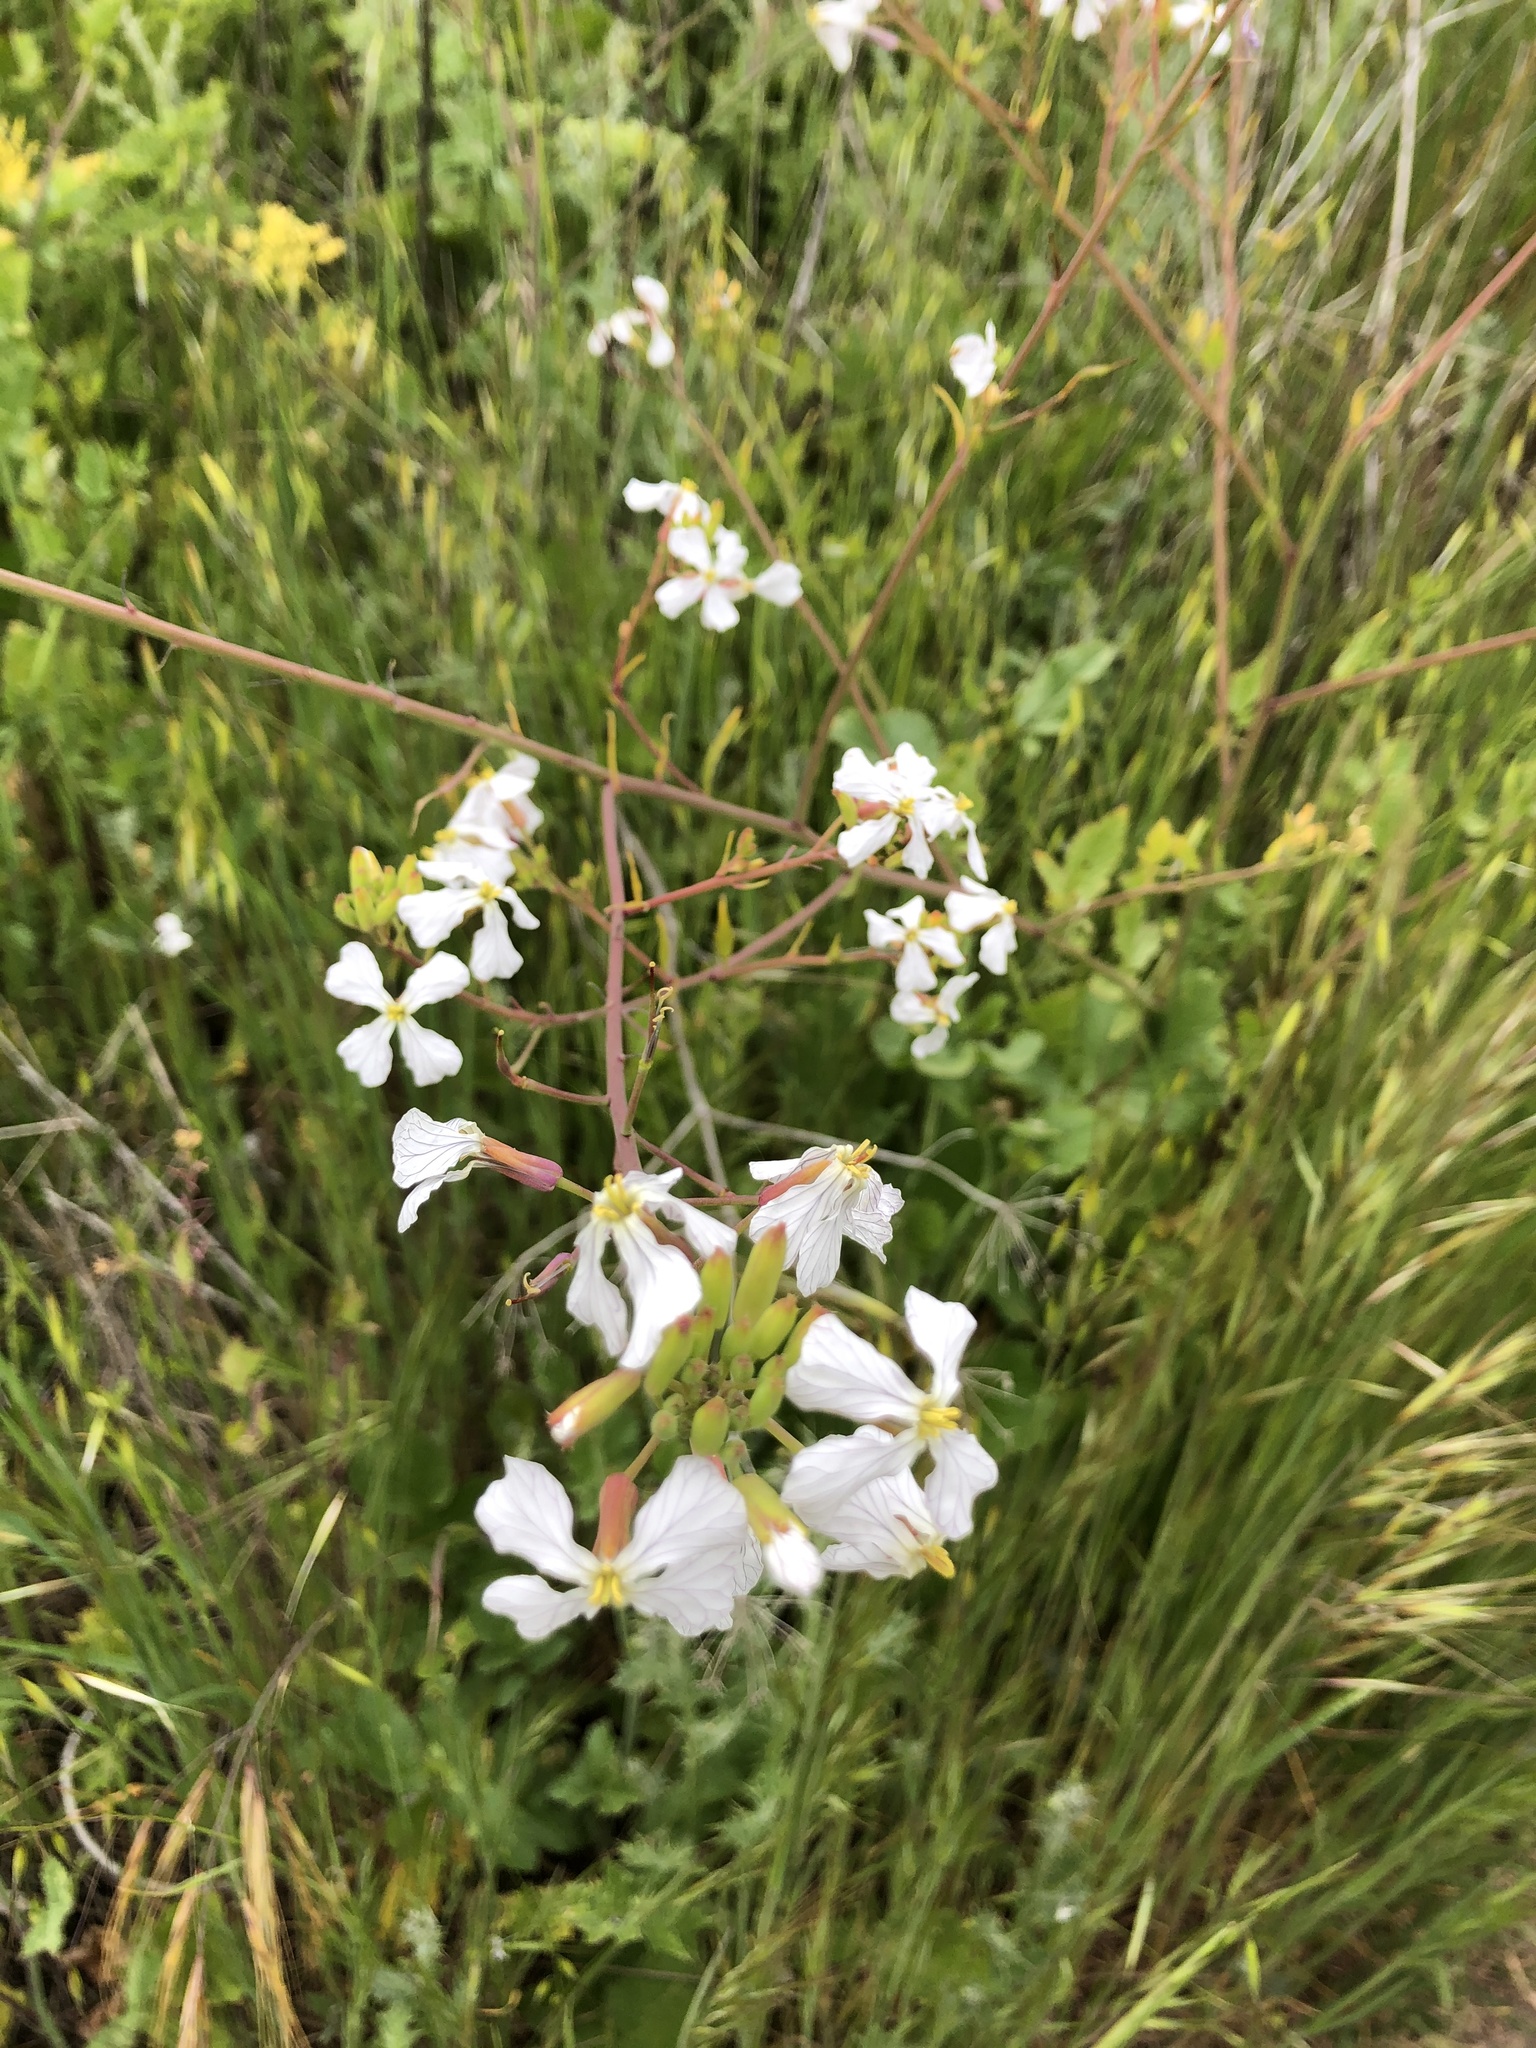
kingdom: Plantae
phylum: Tracheophyta
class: Magnoliopsida
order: Brassicales
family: Brassicaceae
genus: Raphanus
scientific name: Raphanus sativus
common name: Cultivated radish
